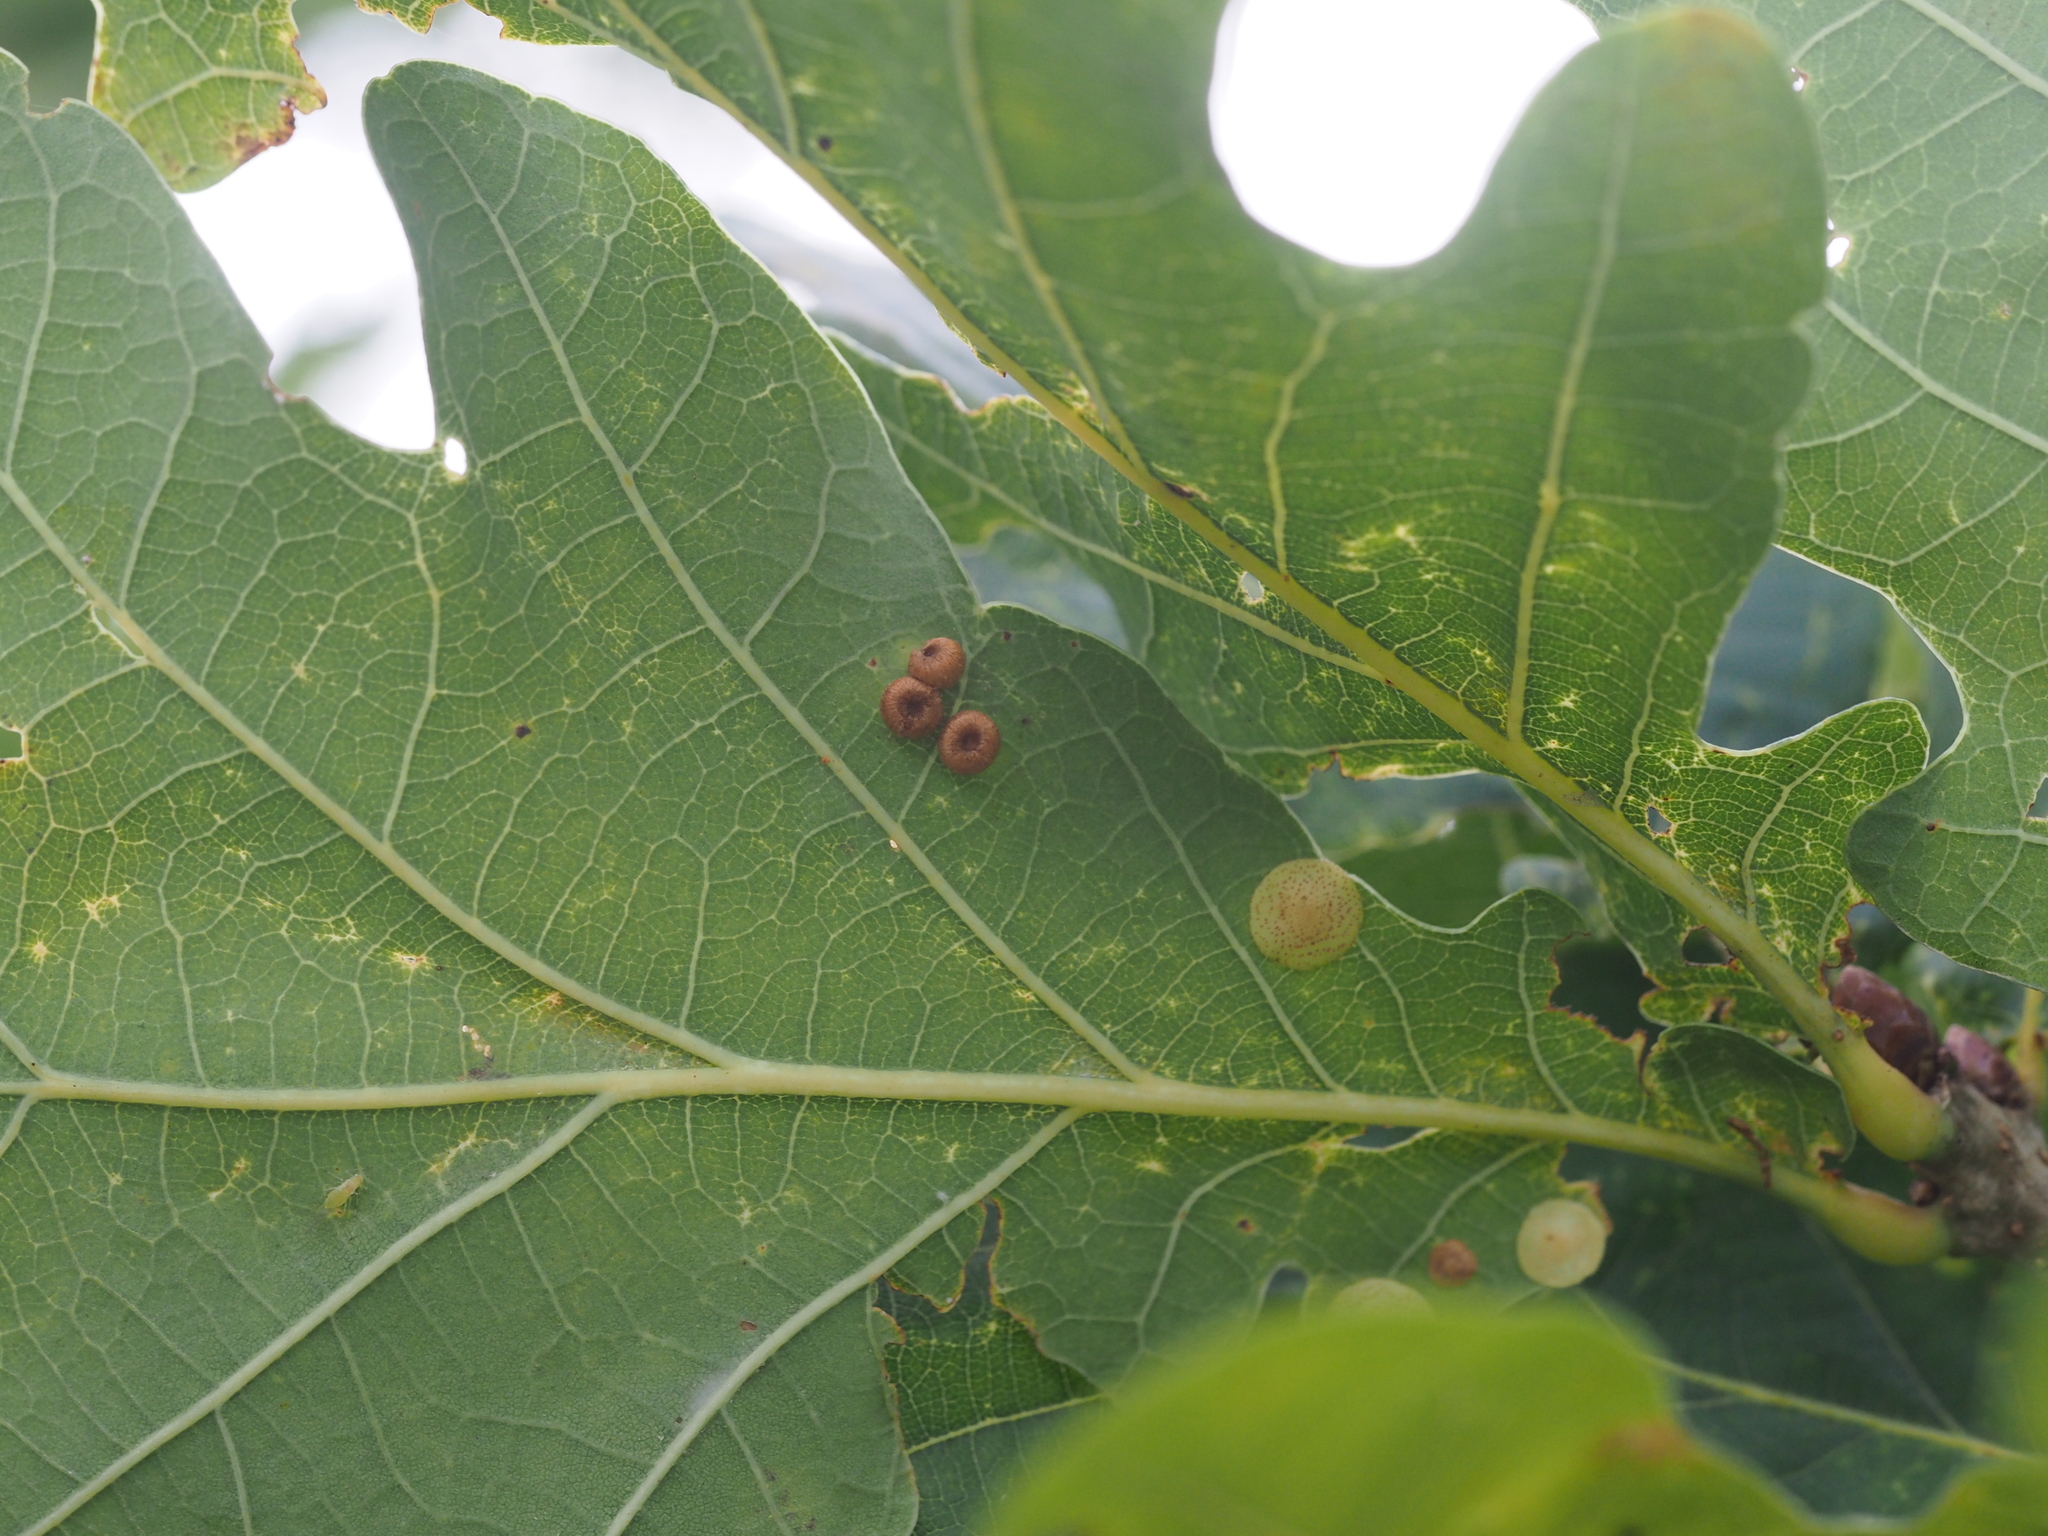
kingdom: Animalia
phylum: Arthropoda
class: Insecta
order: Hymenoptera
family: Cynipidae
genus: Neuroterus
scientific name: Neuroterus quercusbaccarum
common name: Common spangle gall
